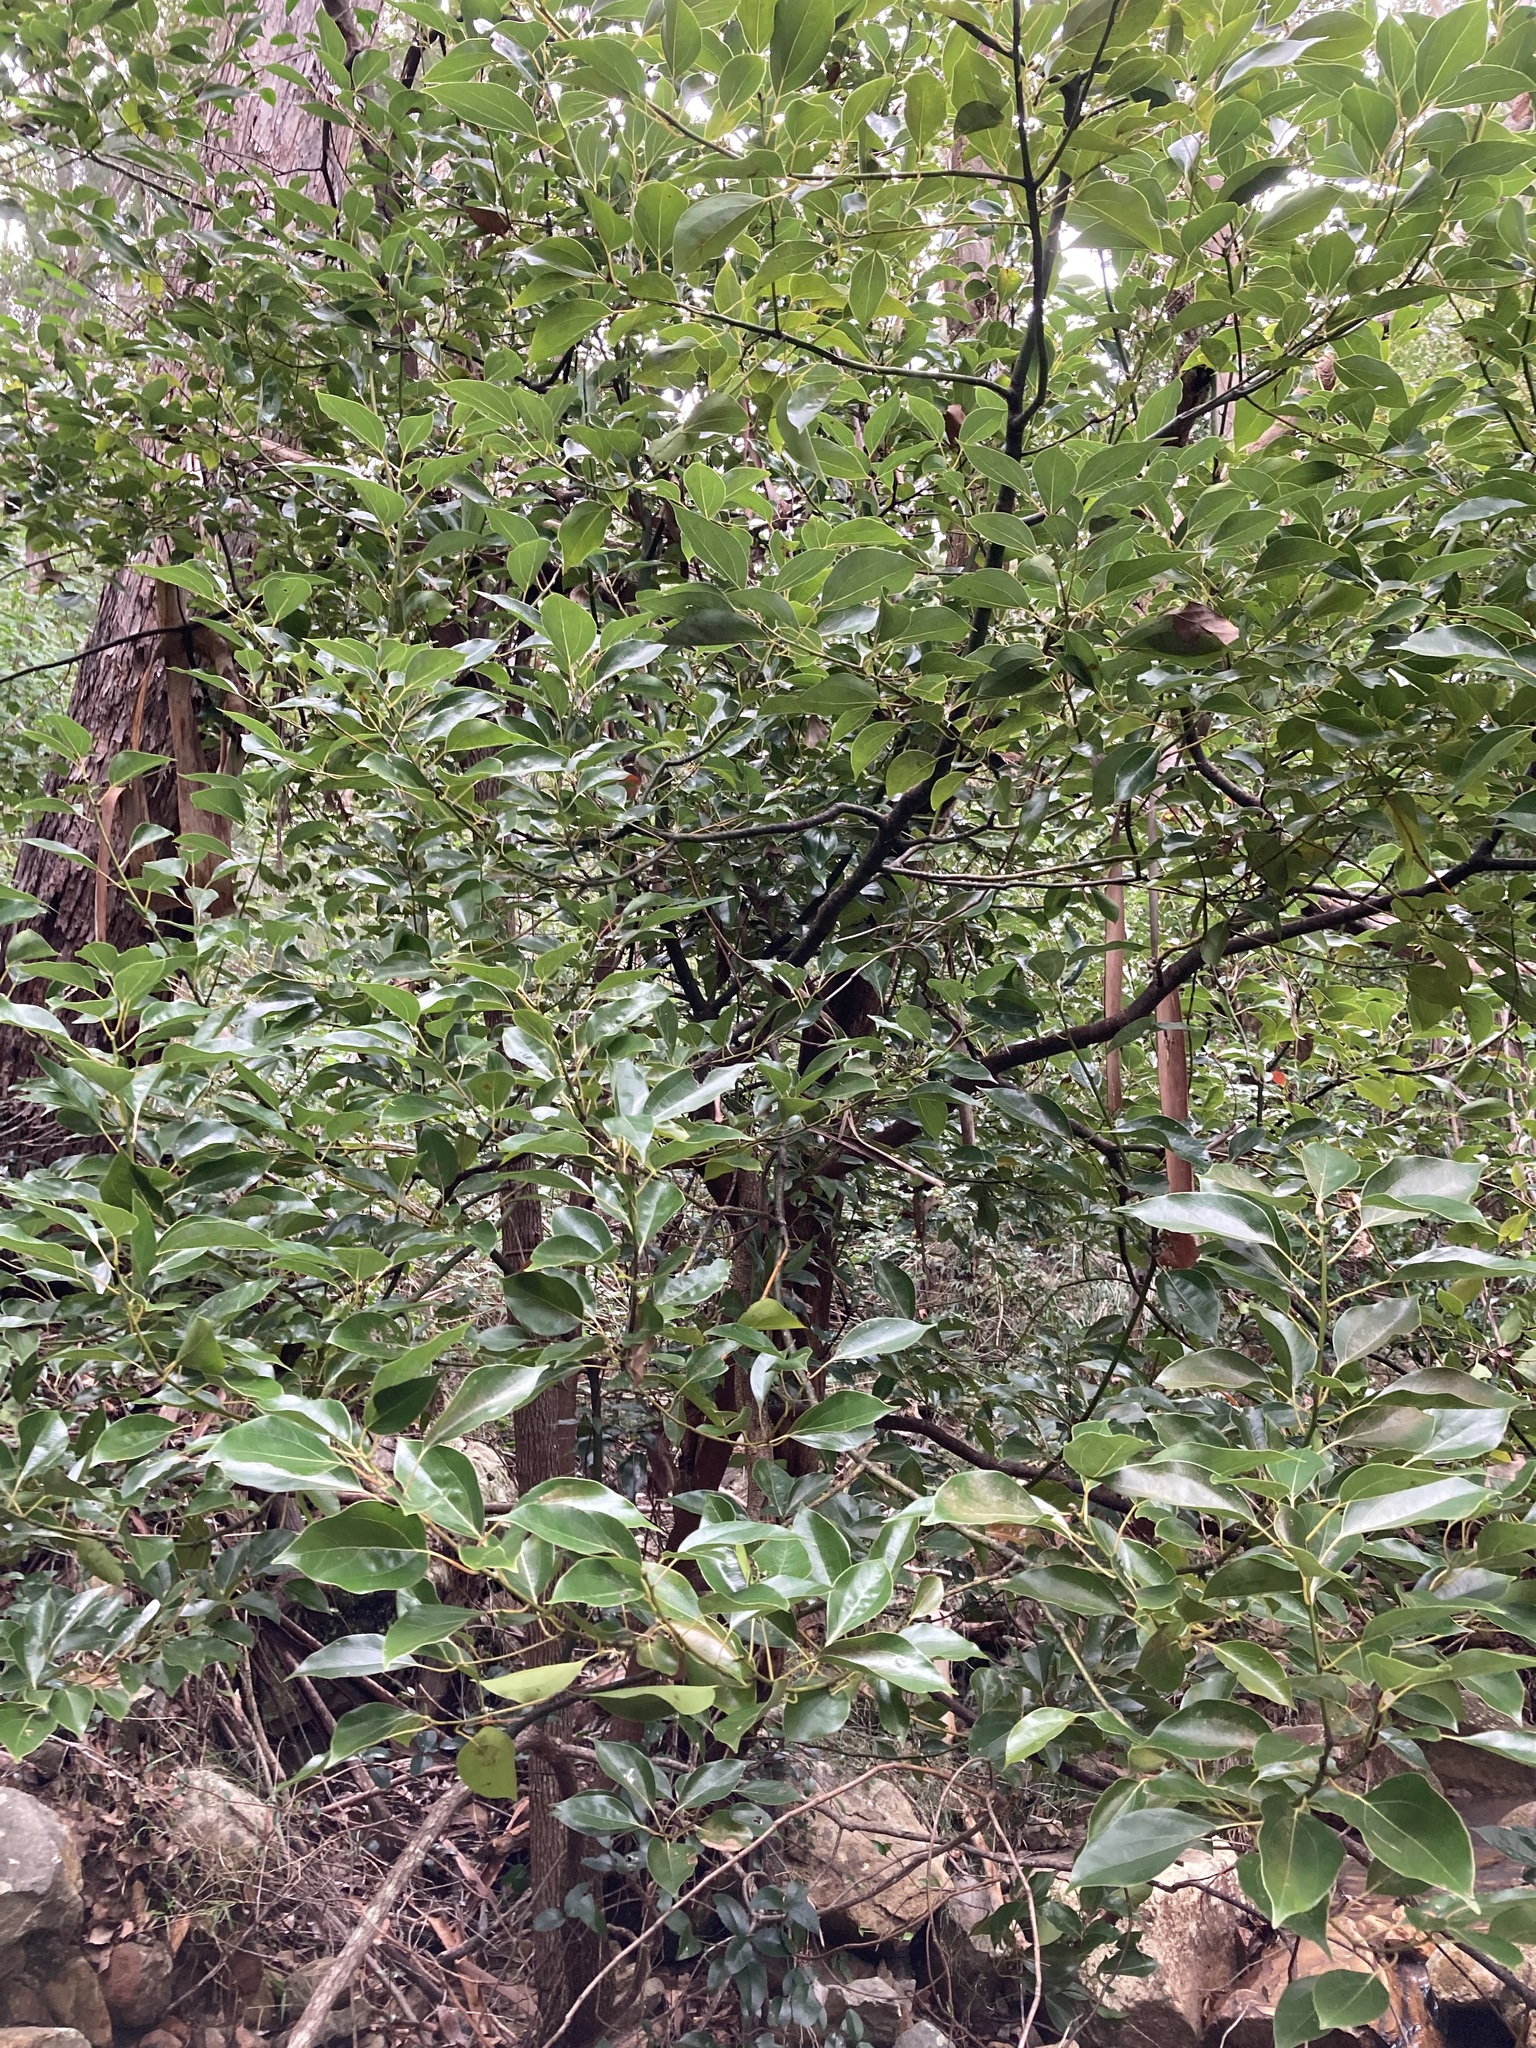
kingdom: Plantae
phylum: Tracheophyta
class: Magnoliopsida
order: Laurales
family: Lauraceae
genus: Cinnamomum
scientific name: Cinnamomum camphora
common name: Camphortree
